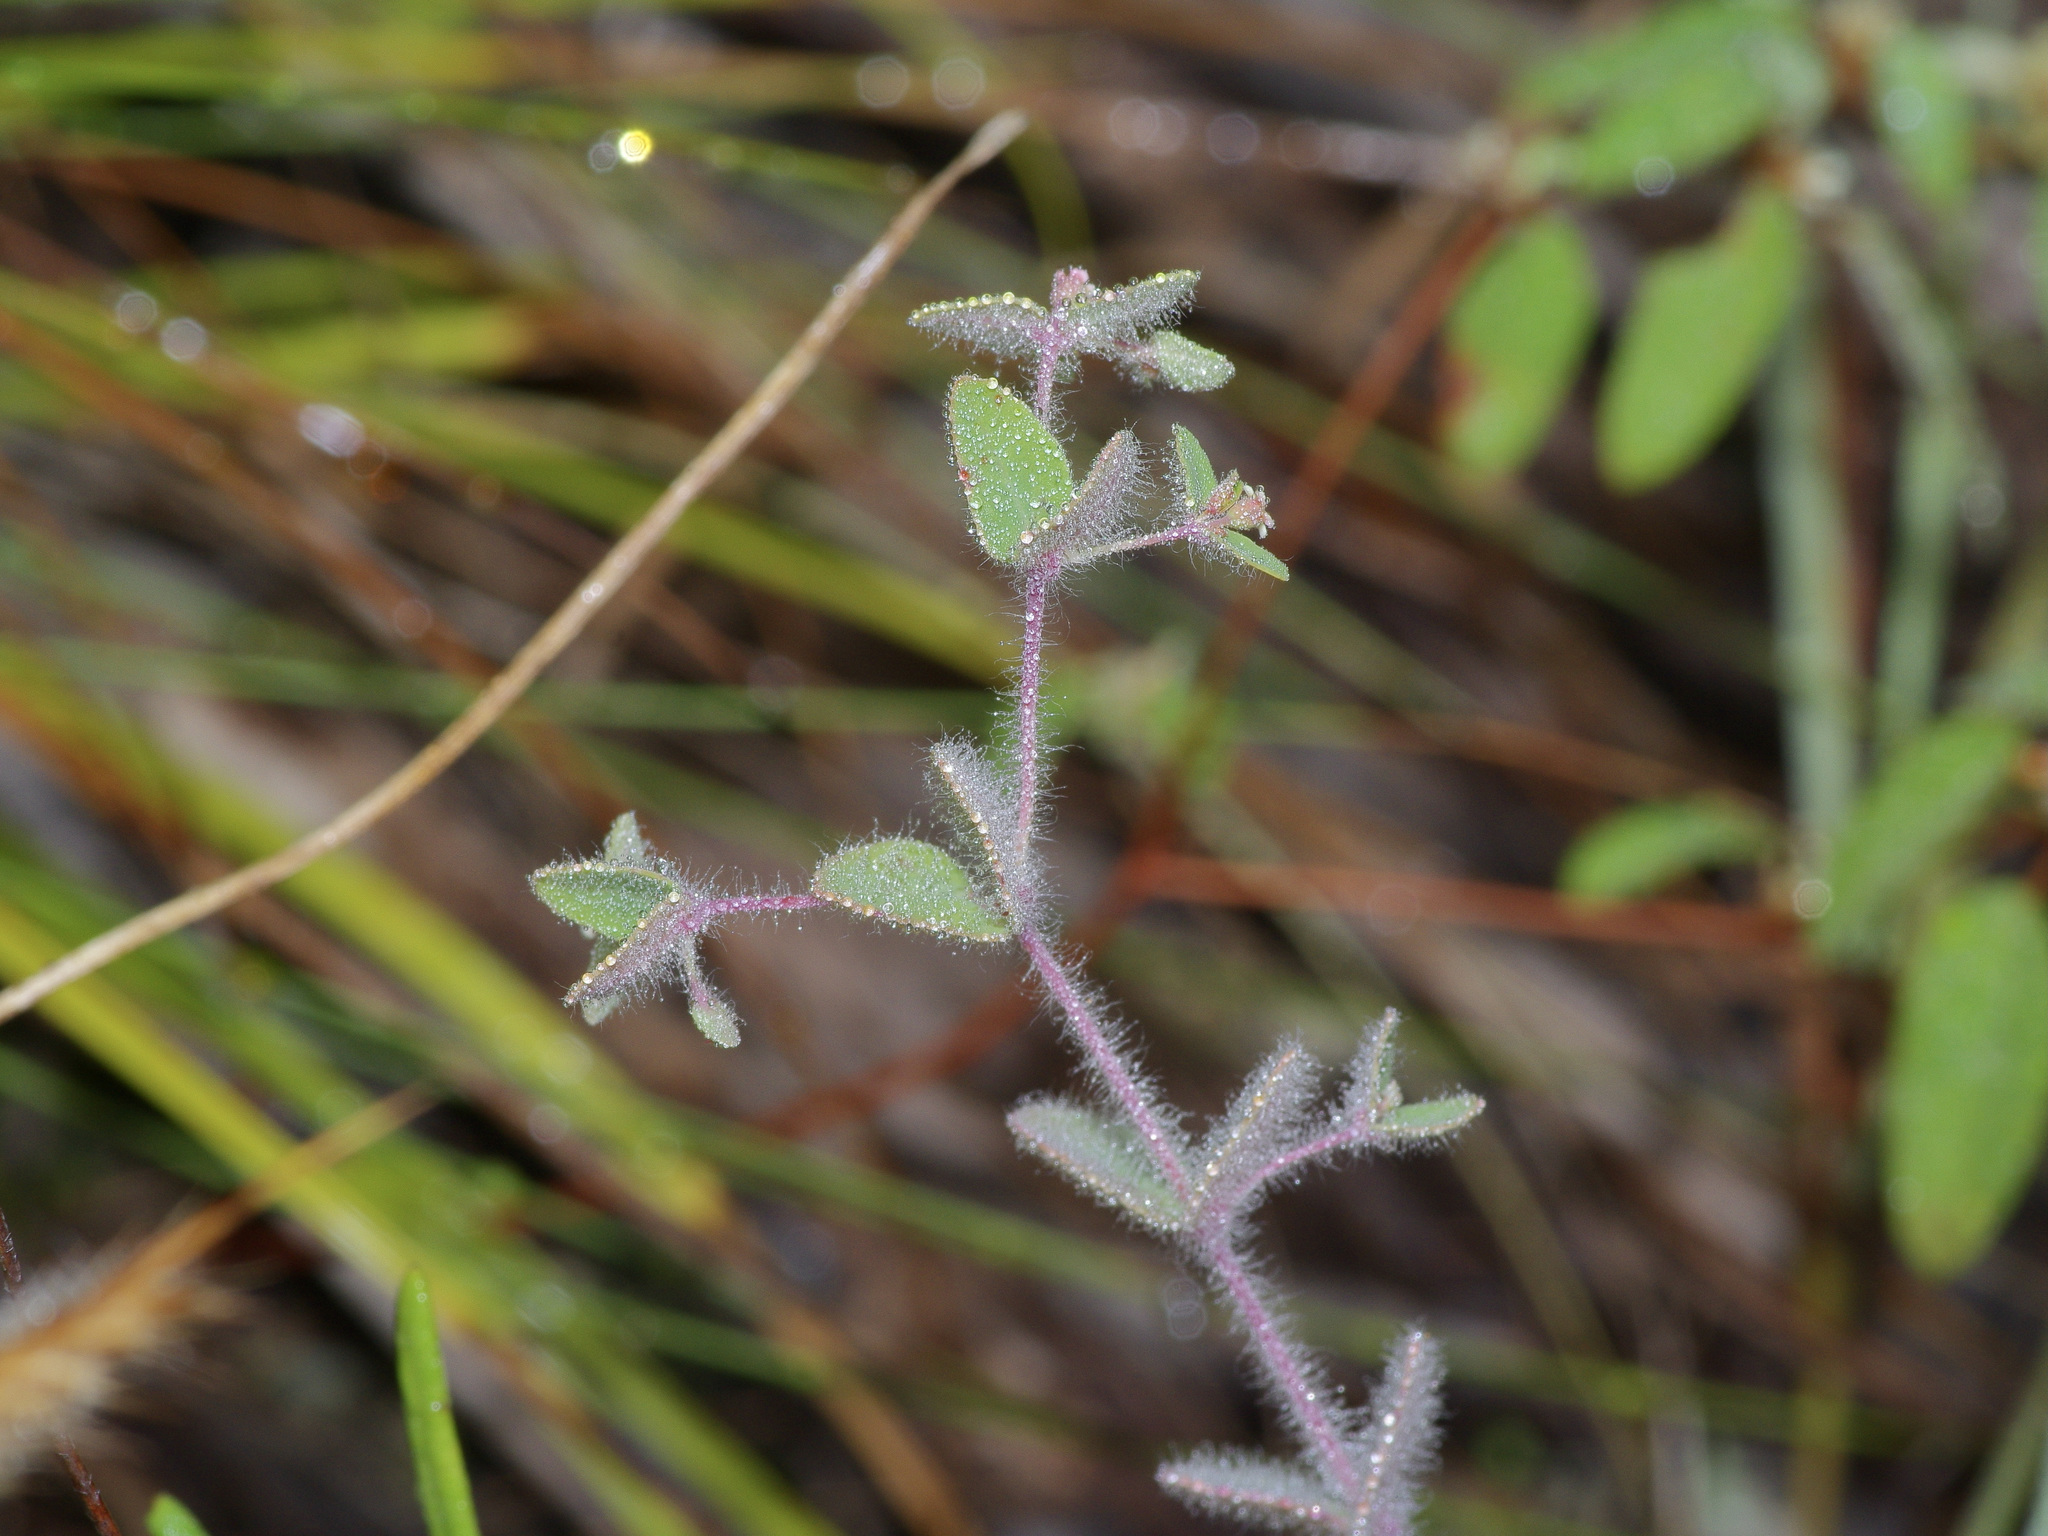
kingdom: Plantae
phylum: Tracheophyta
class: Magnoliopsida
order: Malpighiales
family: Euphorbiaceae
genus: Euphorbia
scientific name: Euphorbia villifera
